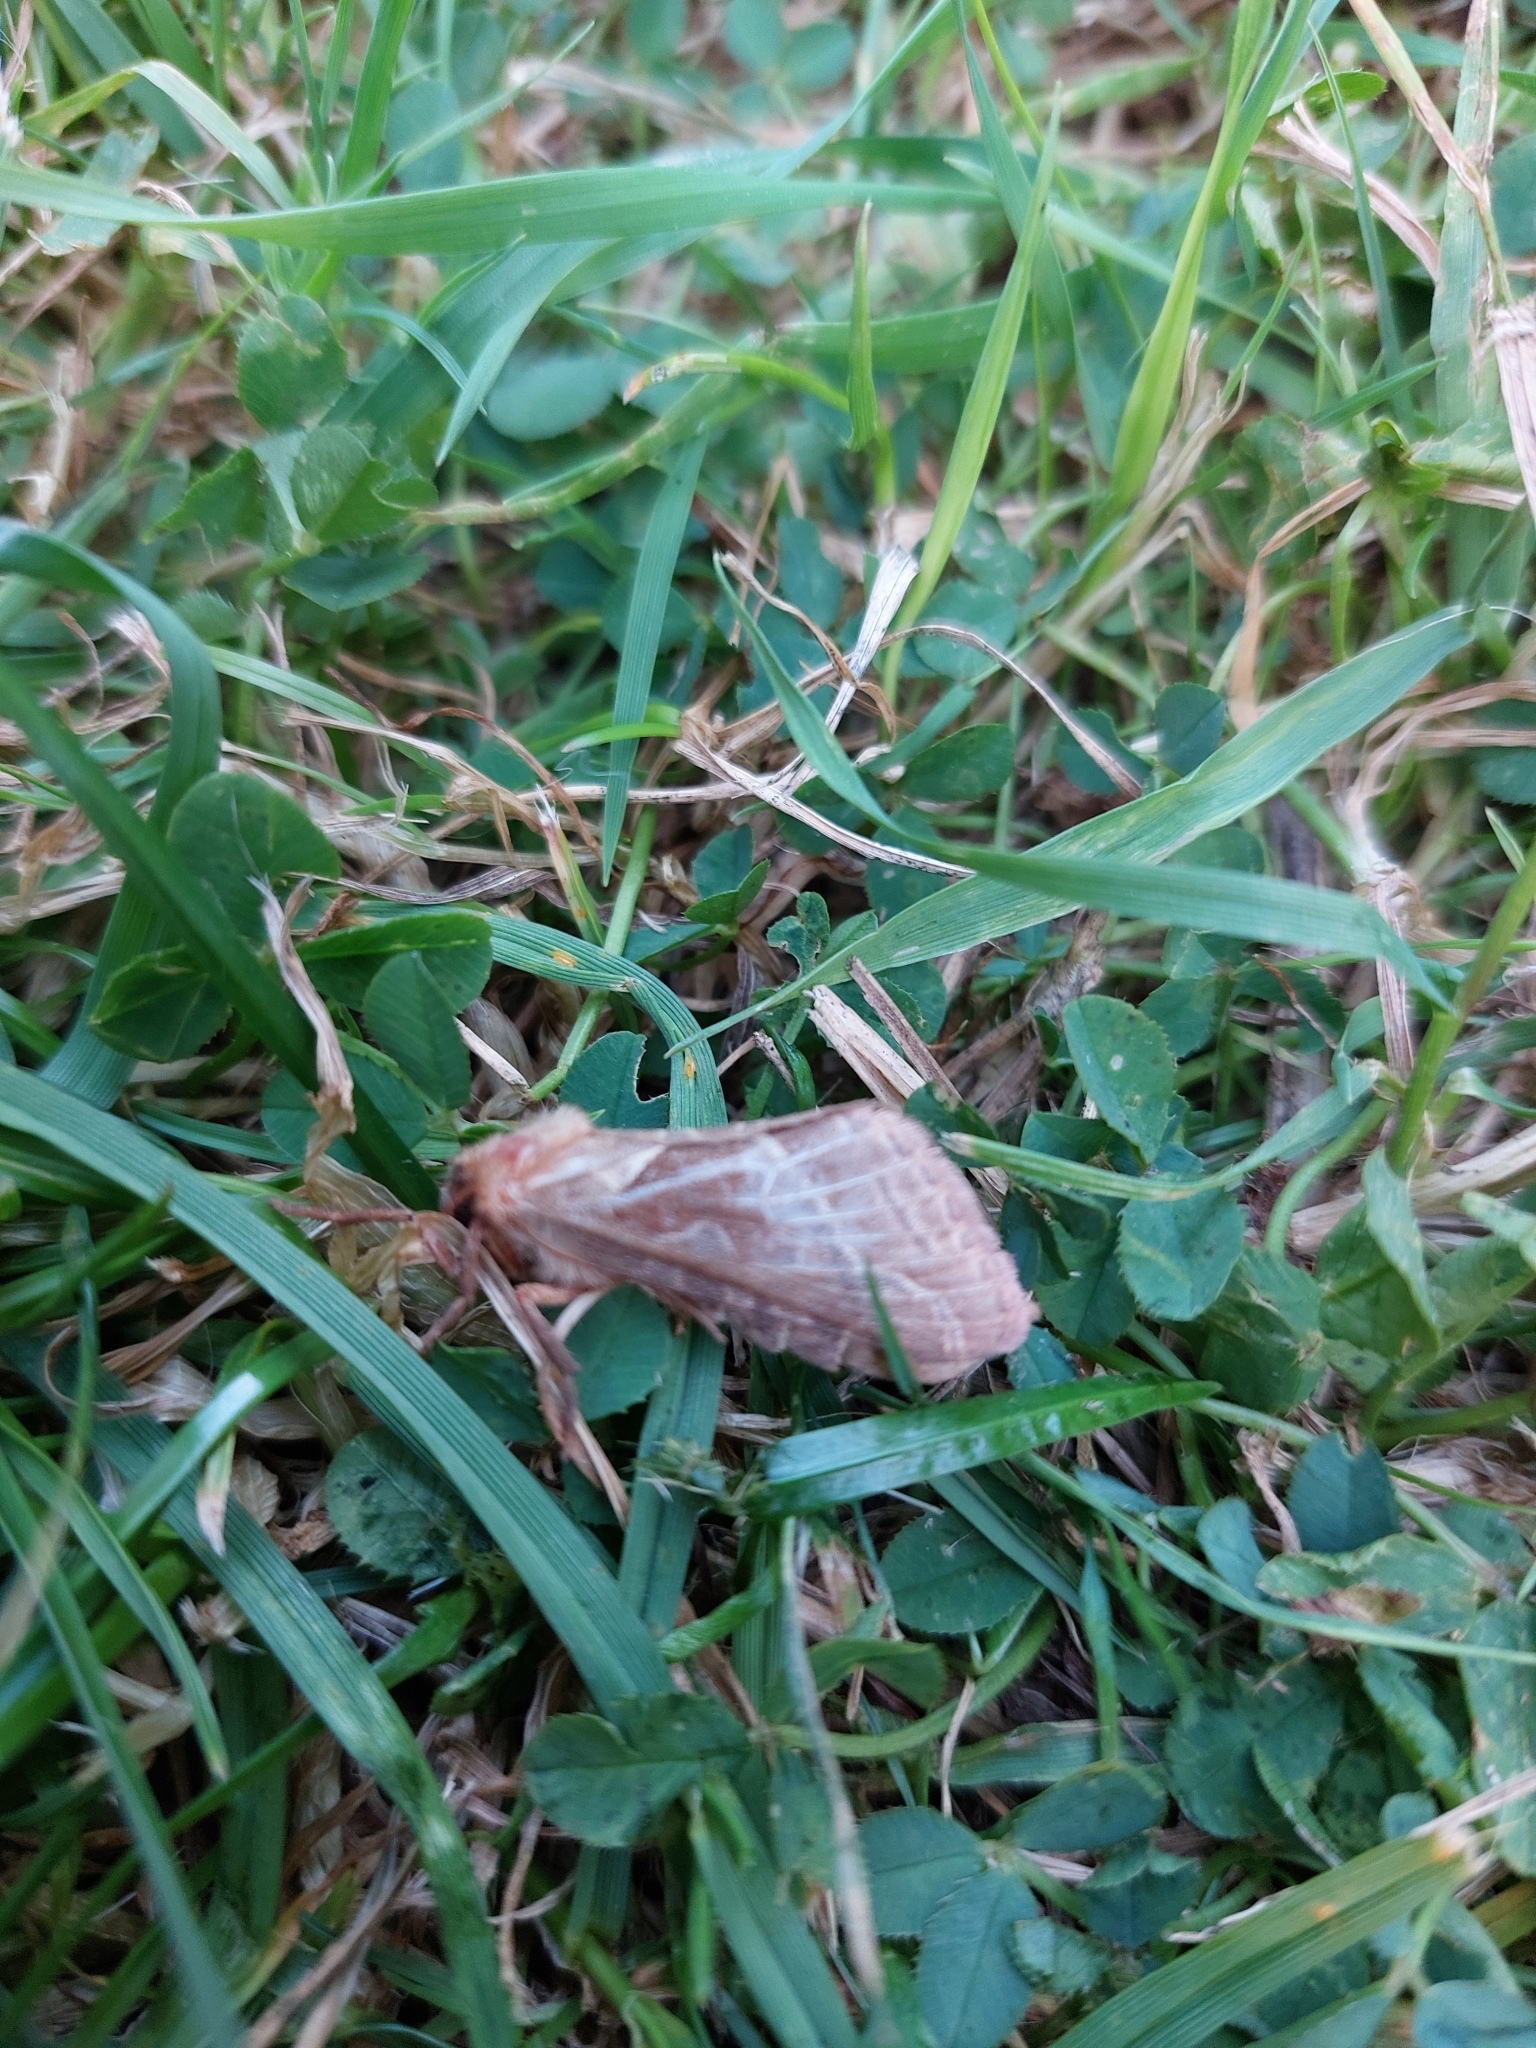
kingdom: Animalia
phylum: Arthropoda
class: Insecta
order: Lepidoptera
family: Hepialidae
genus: Triodia
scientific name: Triodia sylvina
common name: Orange swift
